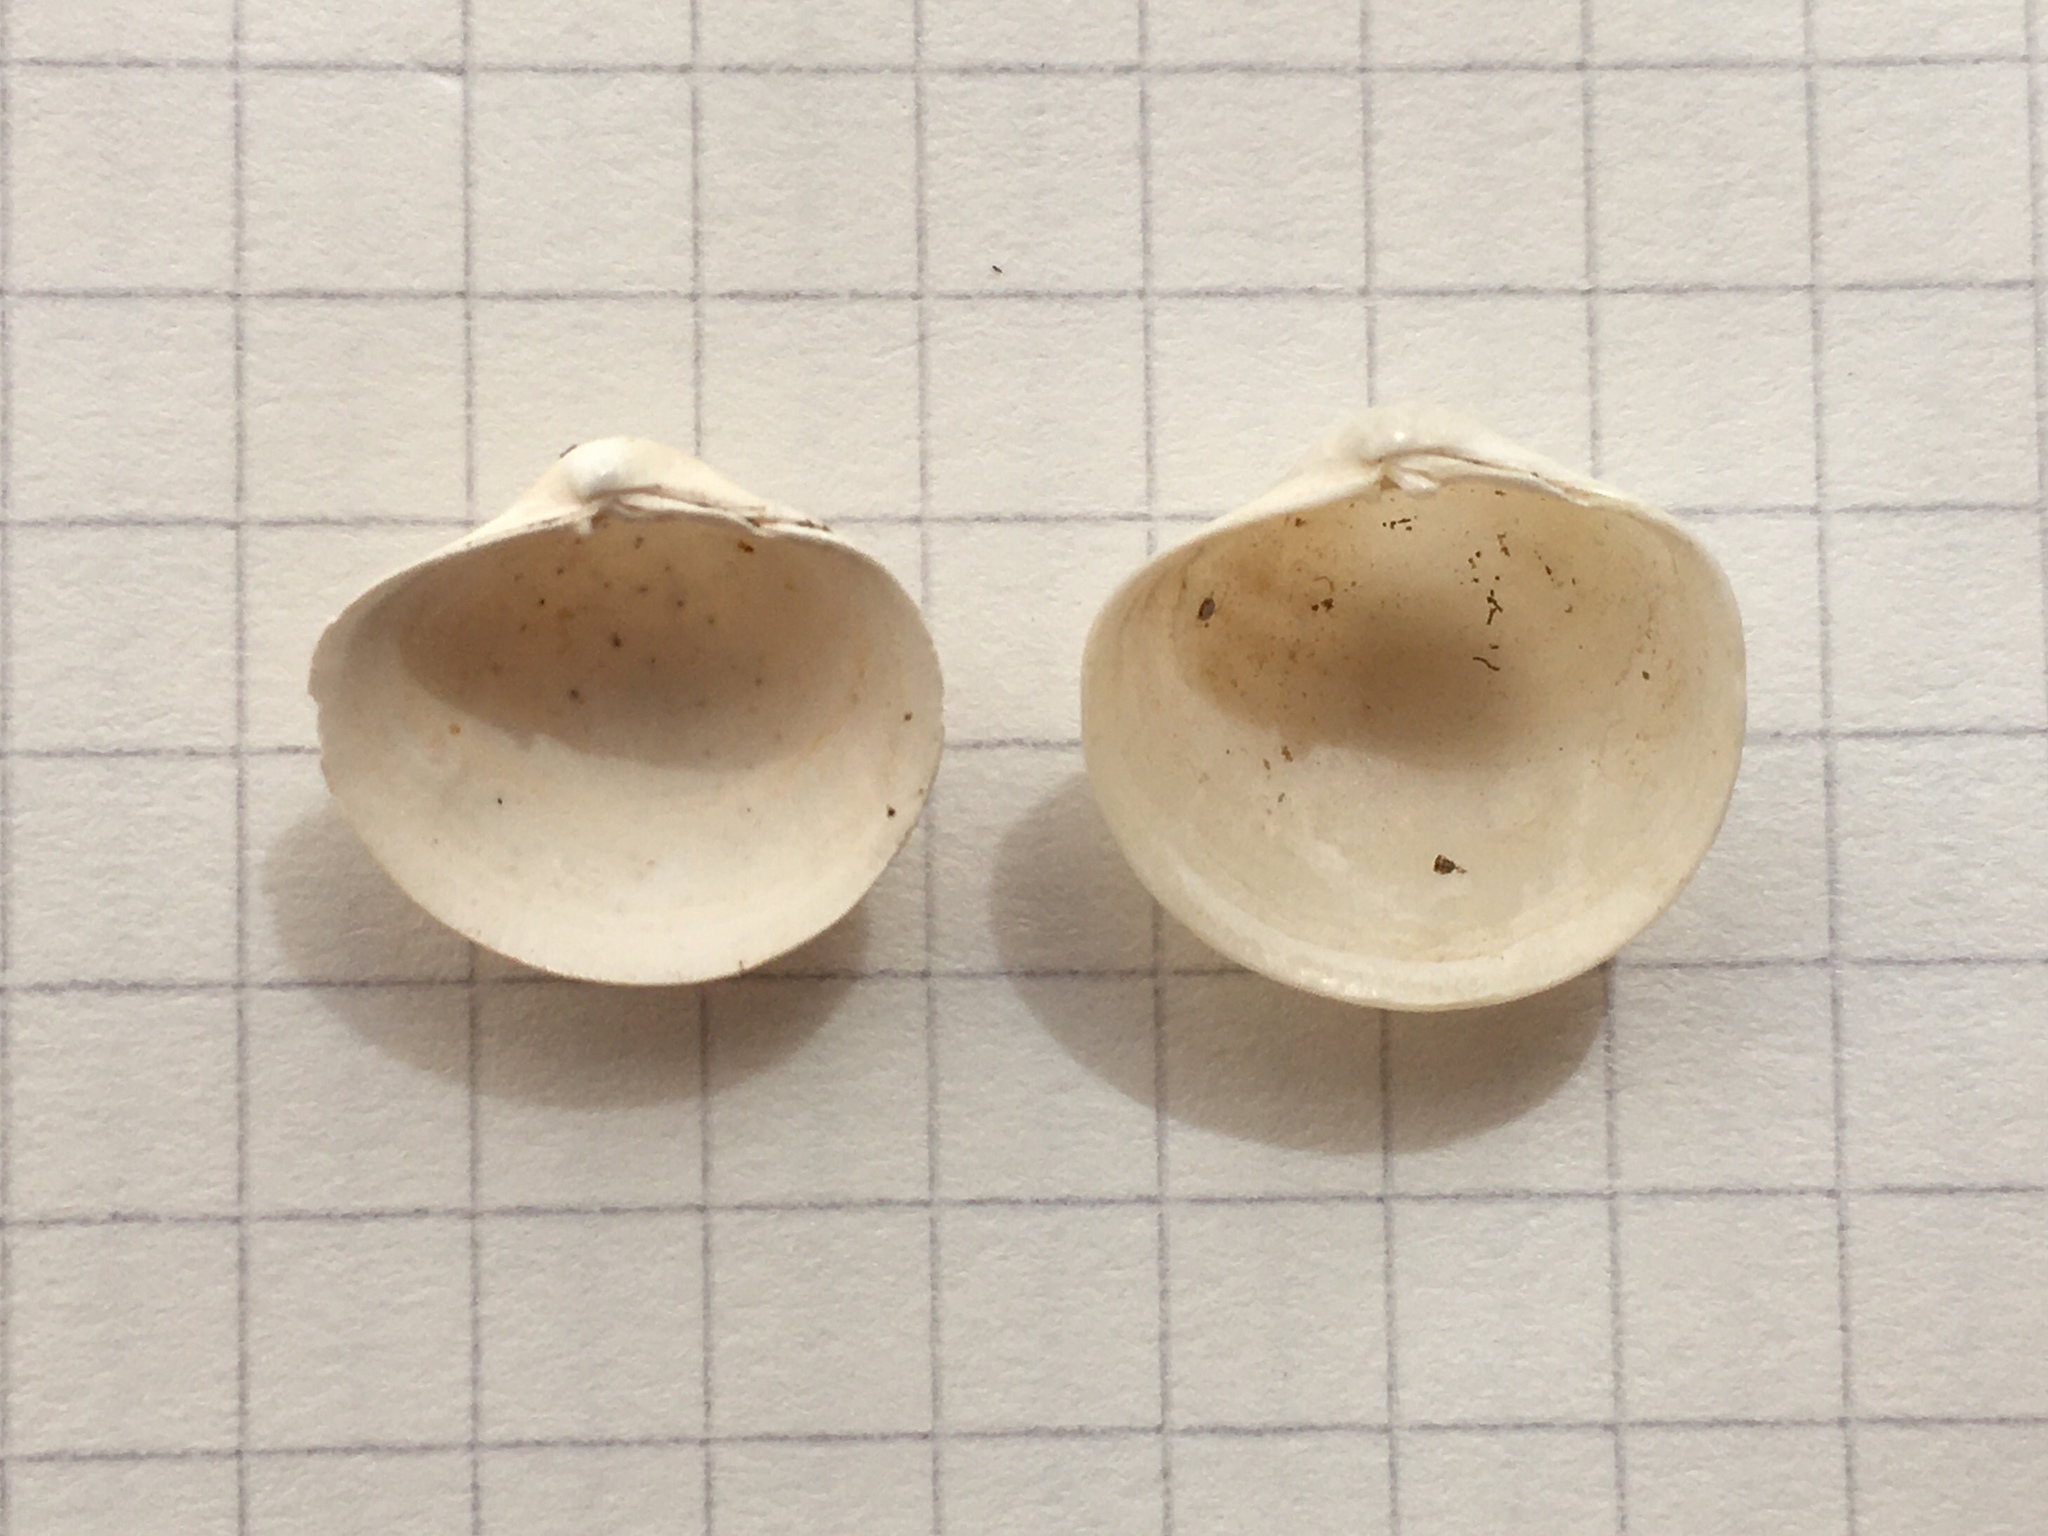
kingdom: Animalia
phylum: Mollusca
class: Bivalvia
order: Venerida
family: Ungulinidae
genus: Phlyctiderma
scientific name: Phlyctiderma semiasperum
